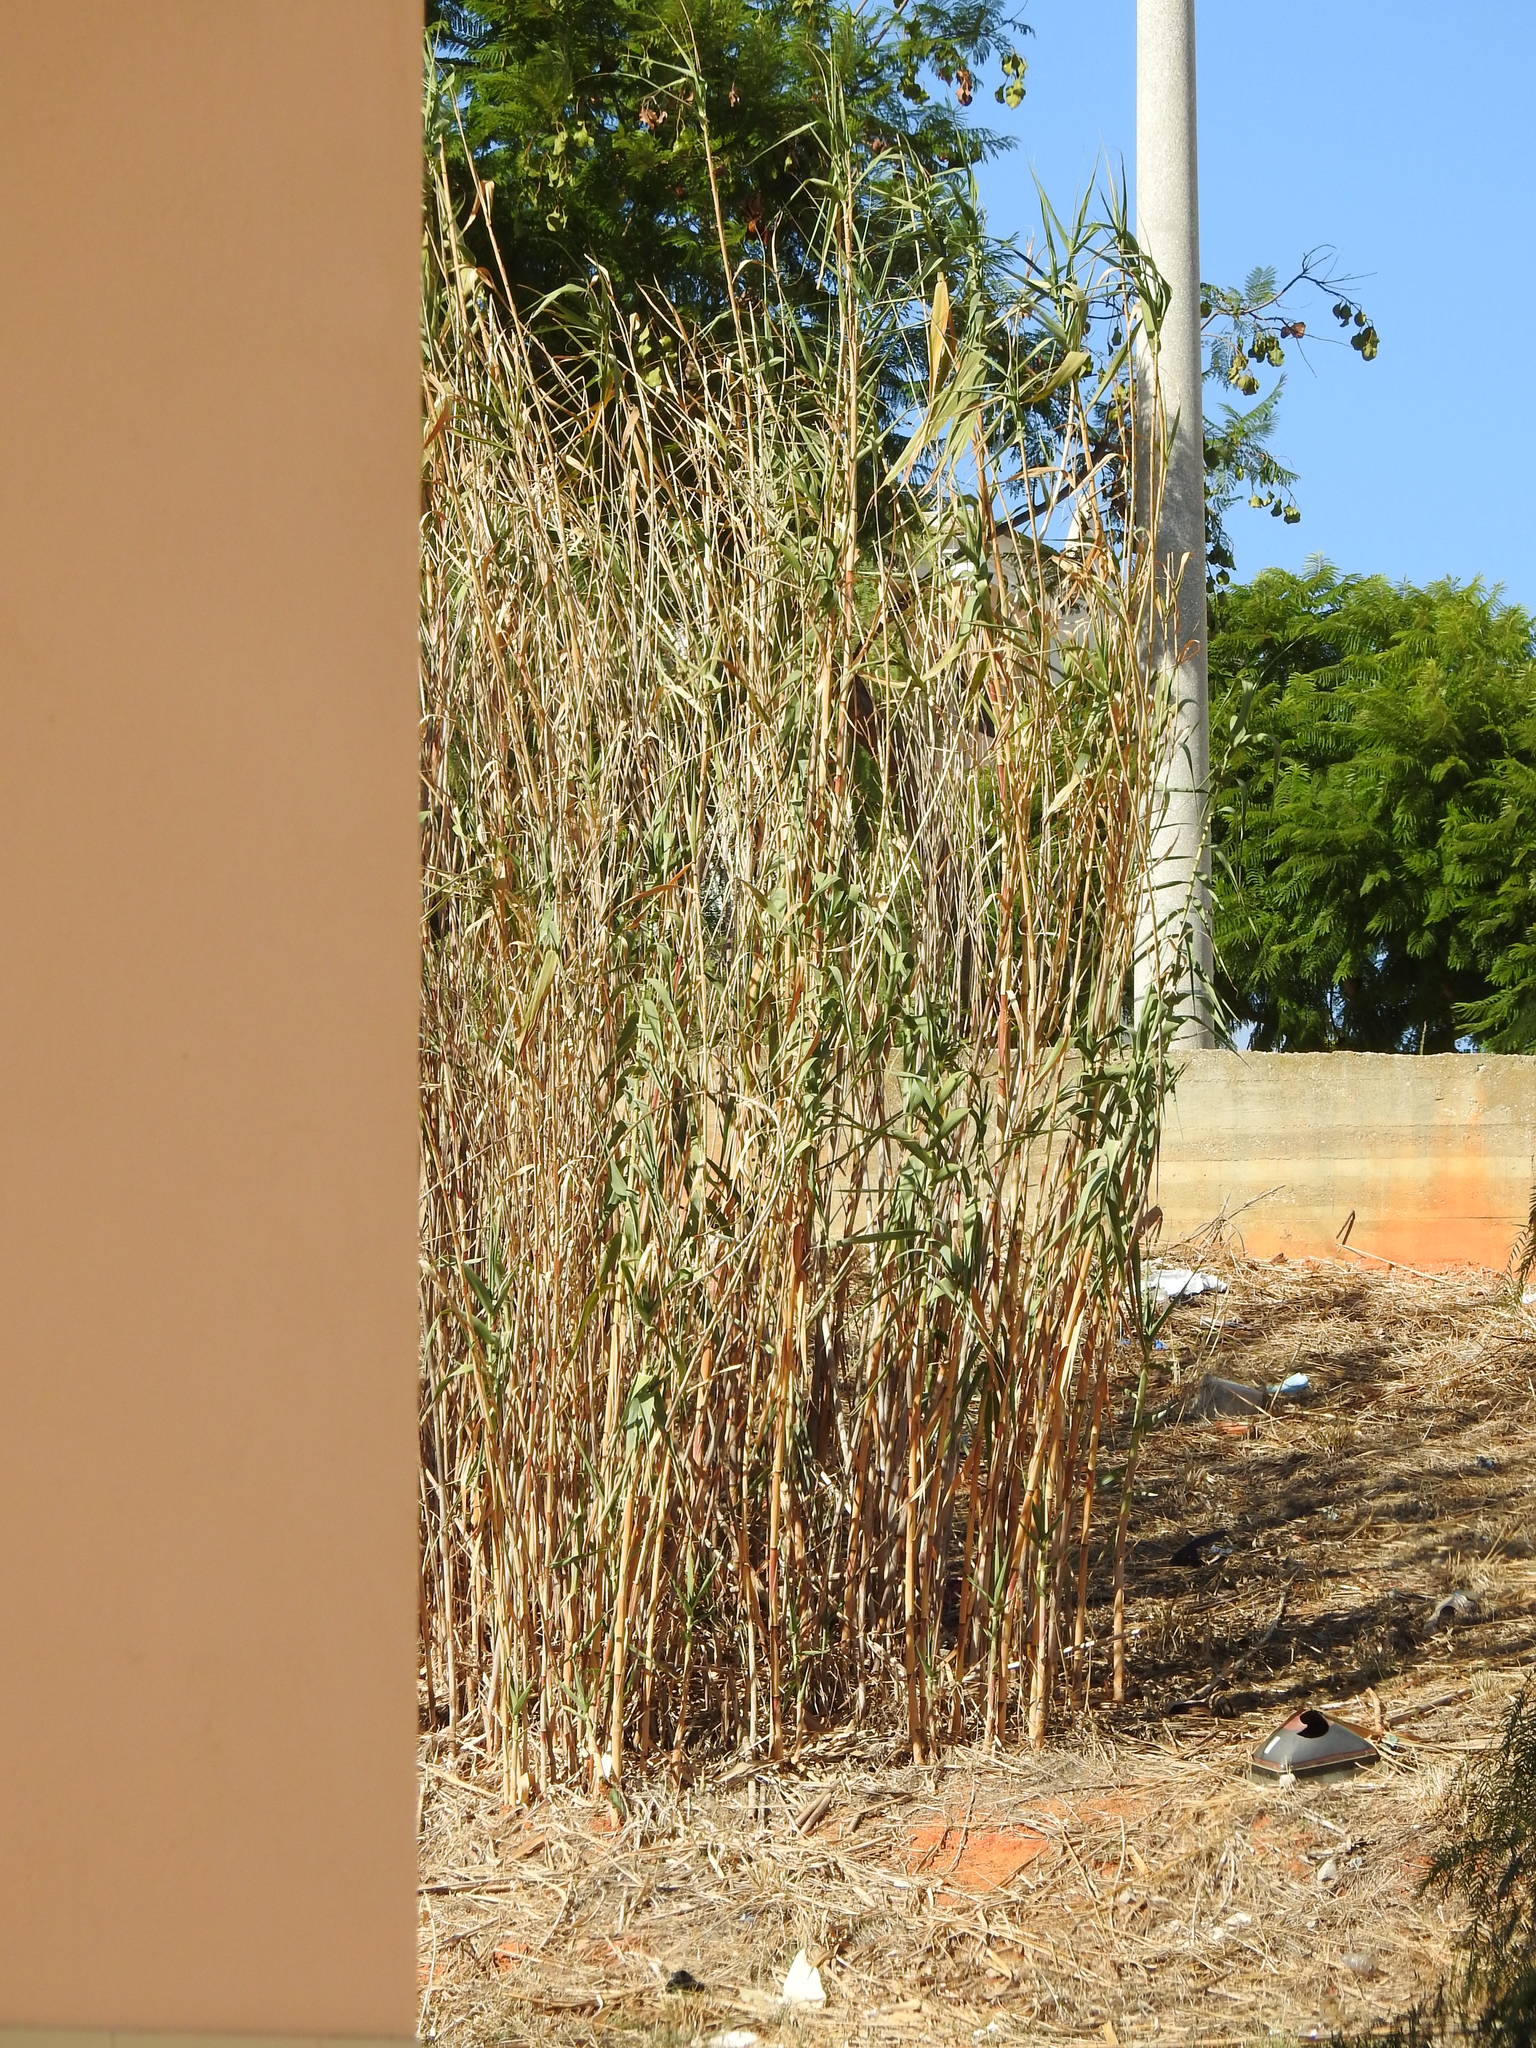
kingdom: Plantae
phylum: Tracheophyta
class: Liliopsida
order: Poales
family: Poaceae
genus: Arundo
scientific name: Arundo donax
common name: Giant reed
